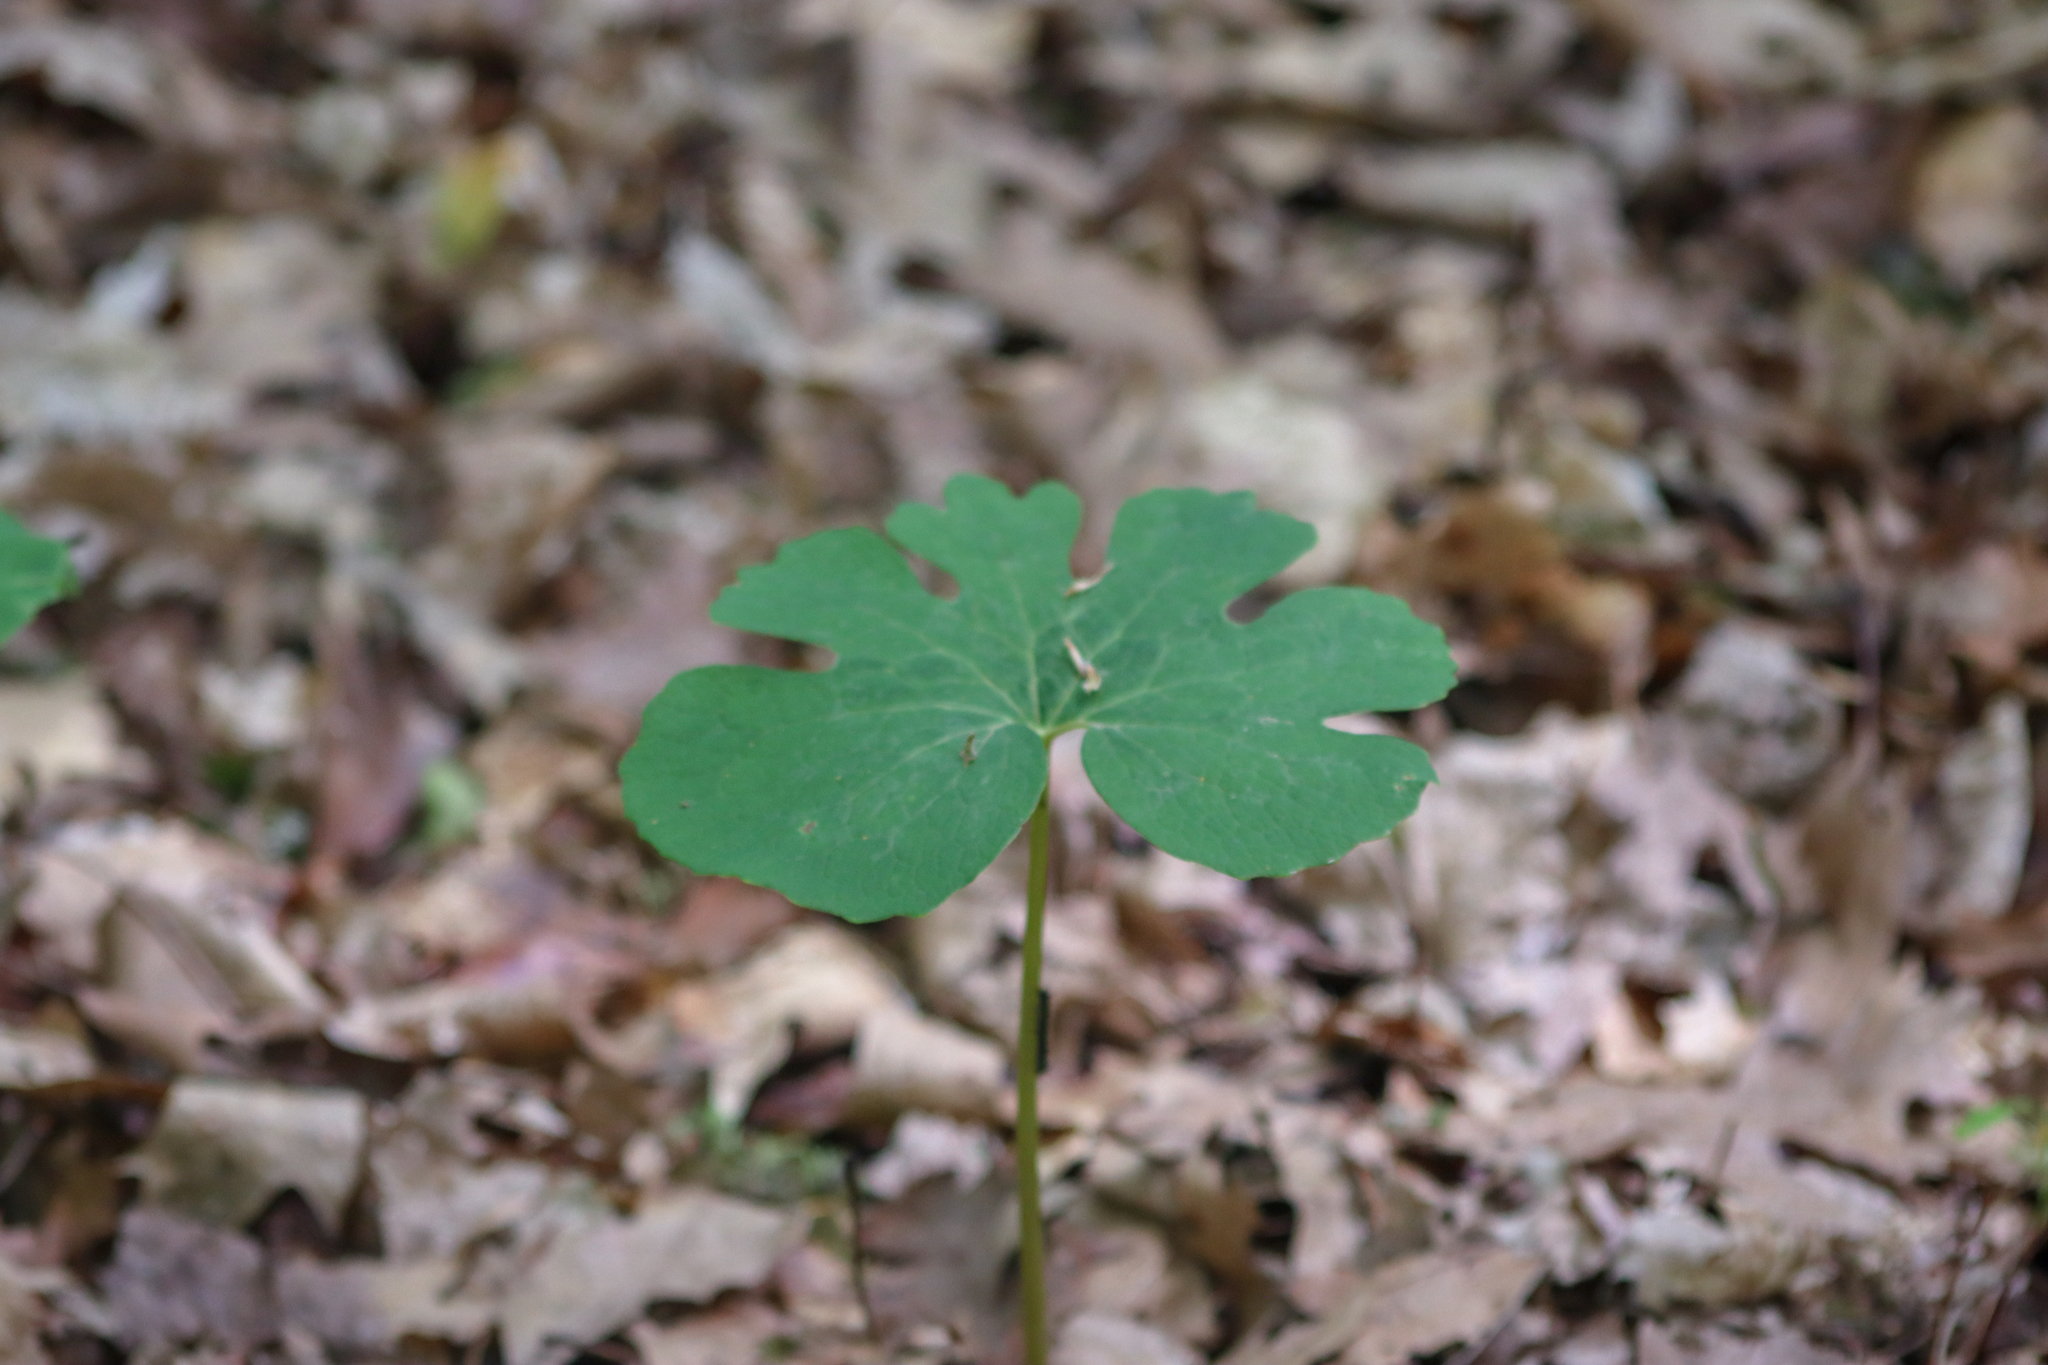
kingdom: Plantae
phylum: Tracheophyta
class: Magnoliopsida
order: Ranunculales
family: Papaveraceae
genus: Sanguinaria
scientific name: Sanguinaria canadensis
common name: Bloodroot
